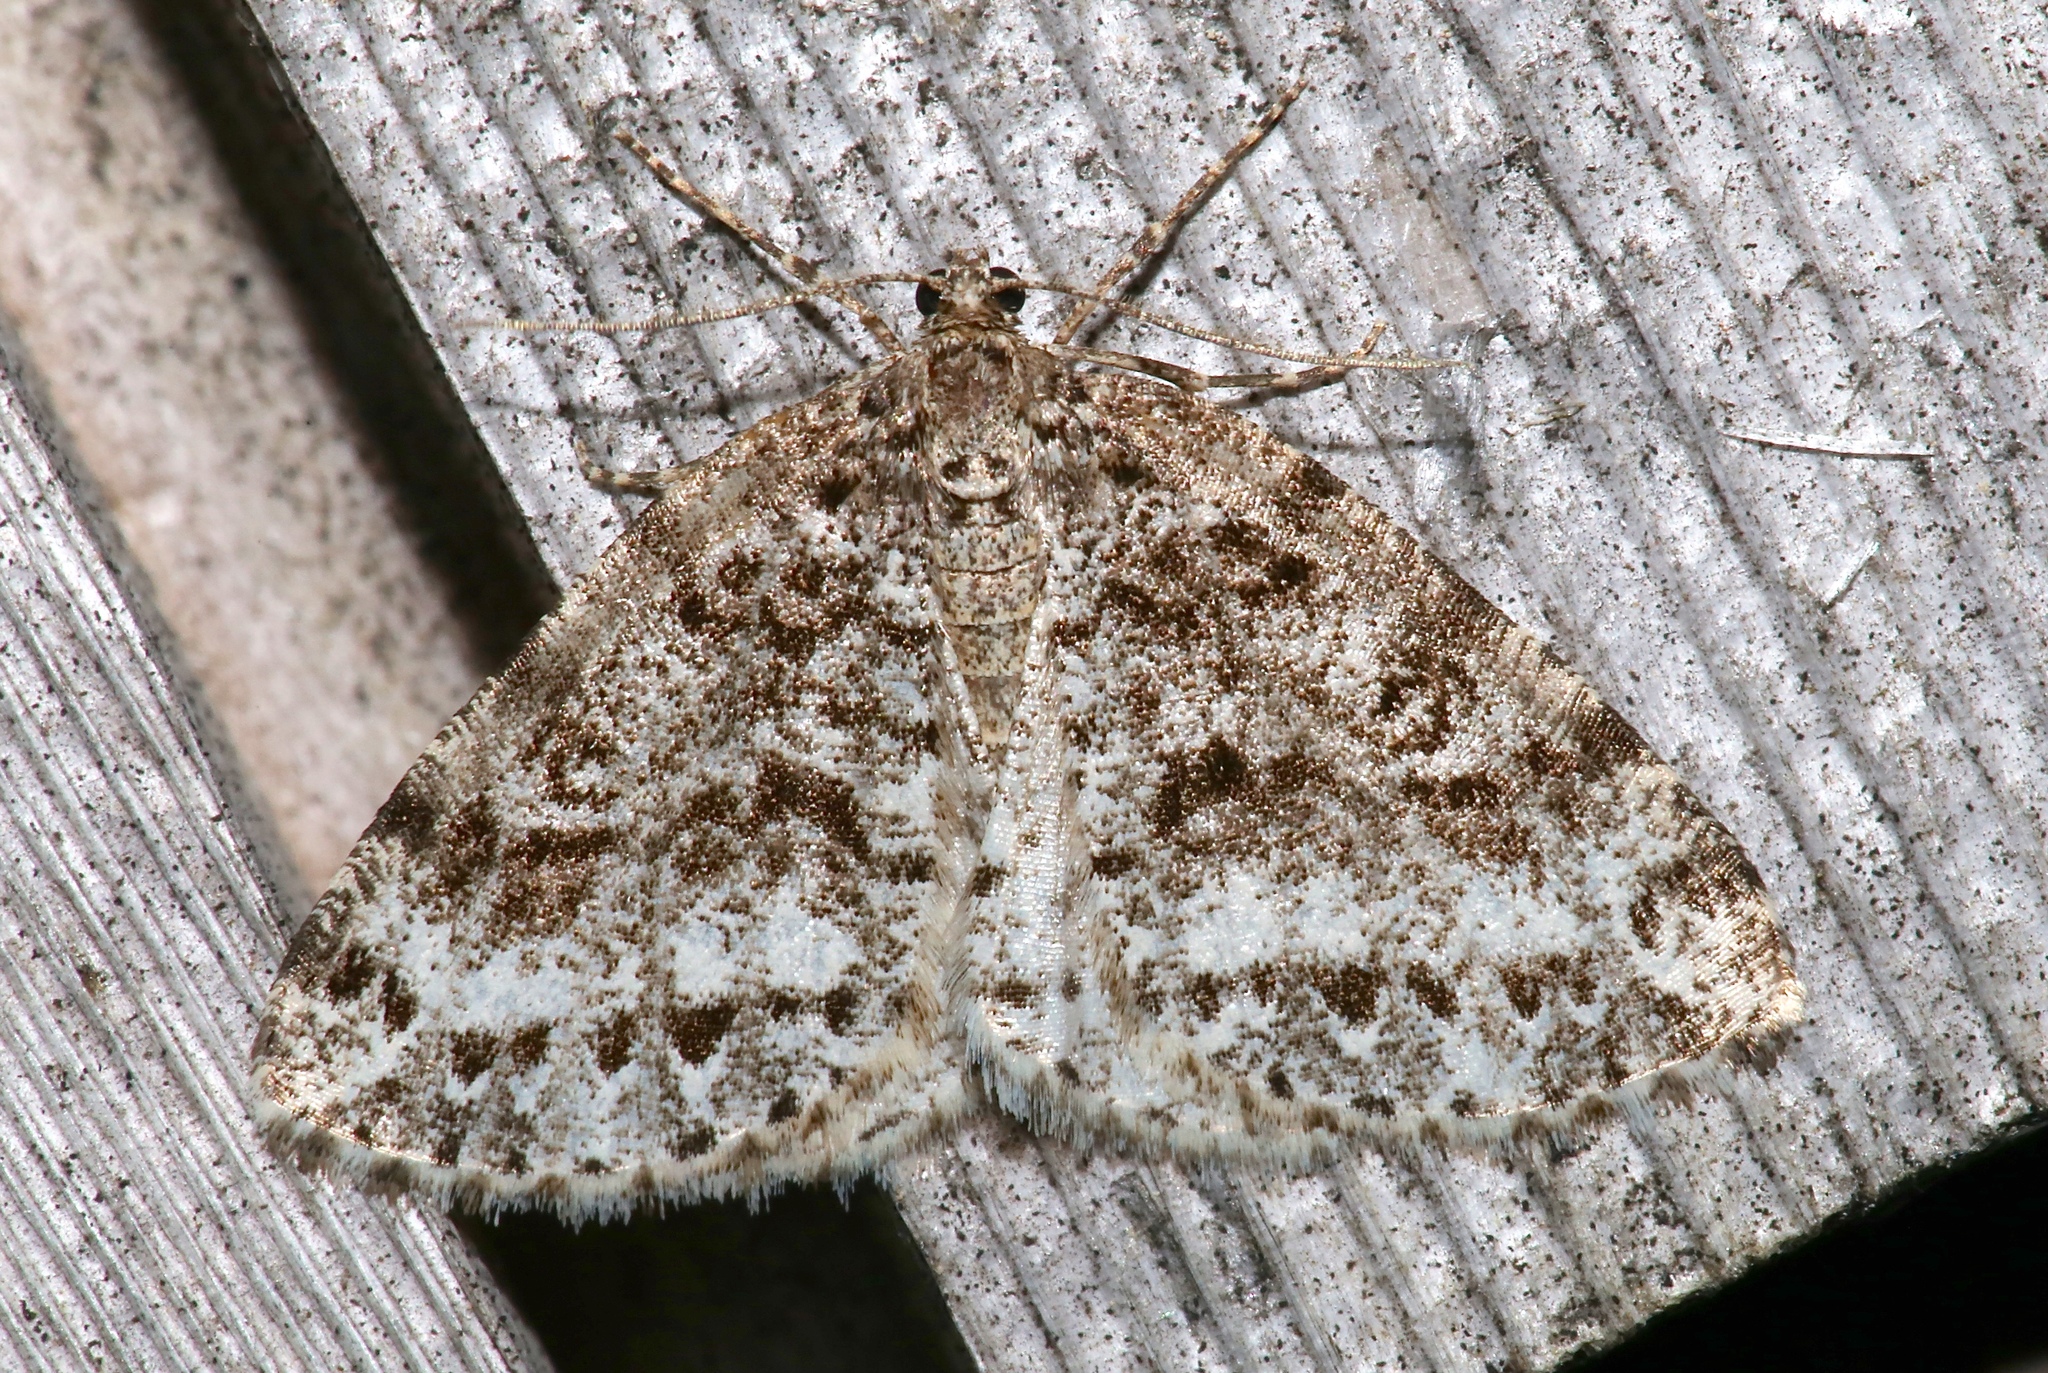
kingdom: Animalia
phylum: Arthropoda
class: Insecta
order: Lepidoptera
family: Geometridae
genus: Orthofidonia
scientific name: Orthofidonia exornata
